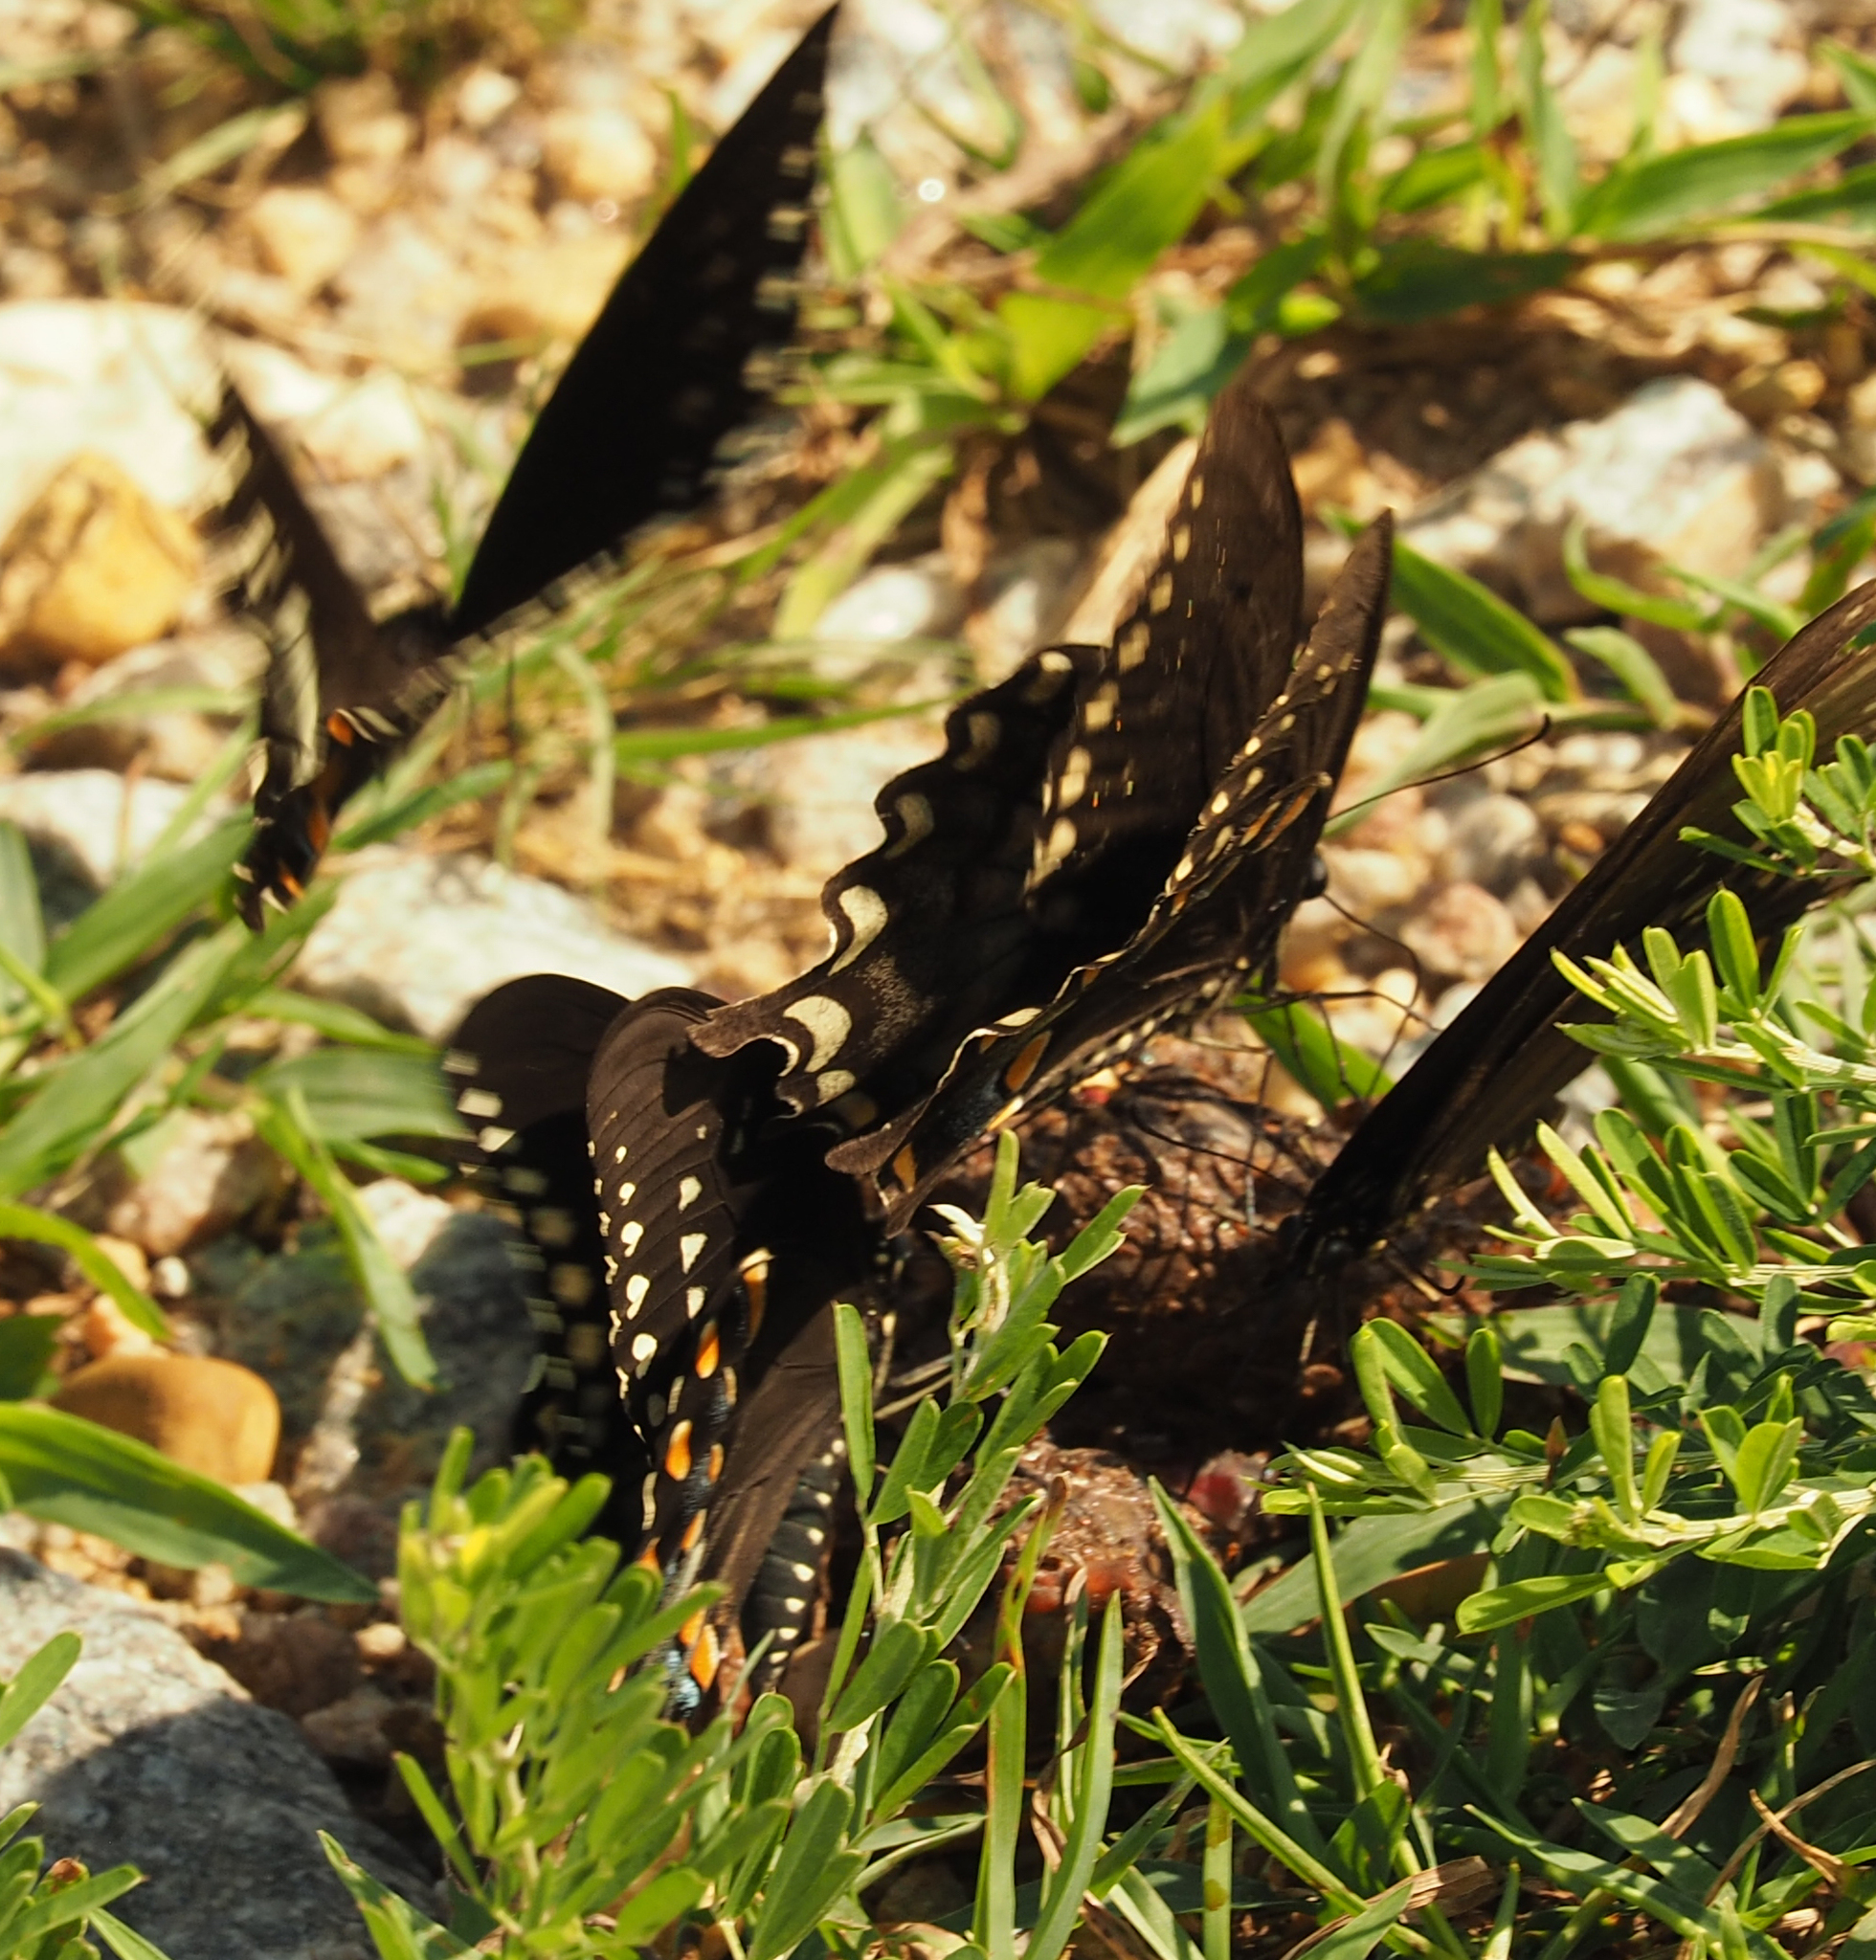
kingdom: Animalia
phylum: Arthropoda
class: Insecta
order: Lepidoptera
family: Papilionidae
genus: Papilio
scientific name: Papilio troilus
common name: Spicebush swallowtail
